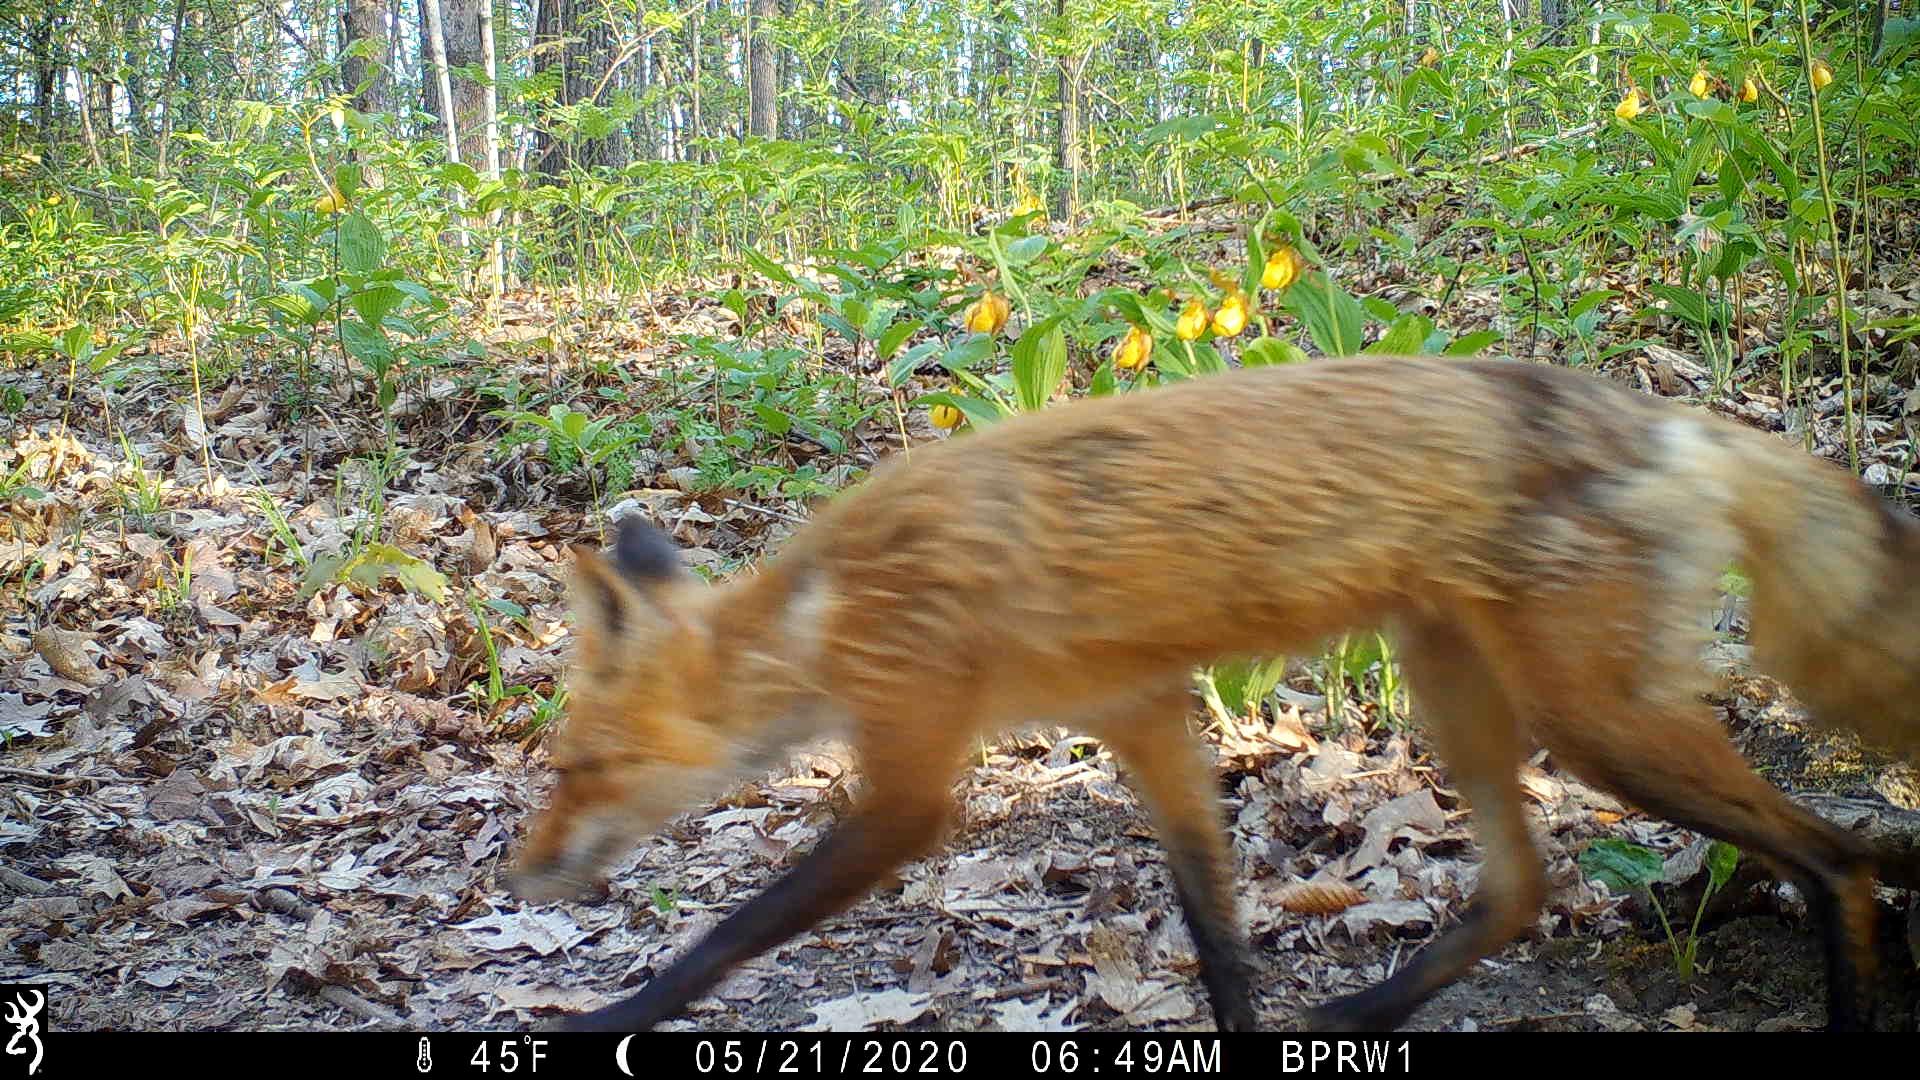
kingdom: Animalia
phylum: Chordata
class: Mammalia
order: Carnivora
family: Canidae
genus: Vulpes
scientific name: Vulpes vulpes
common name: Red fox
